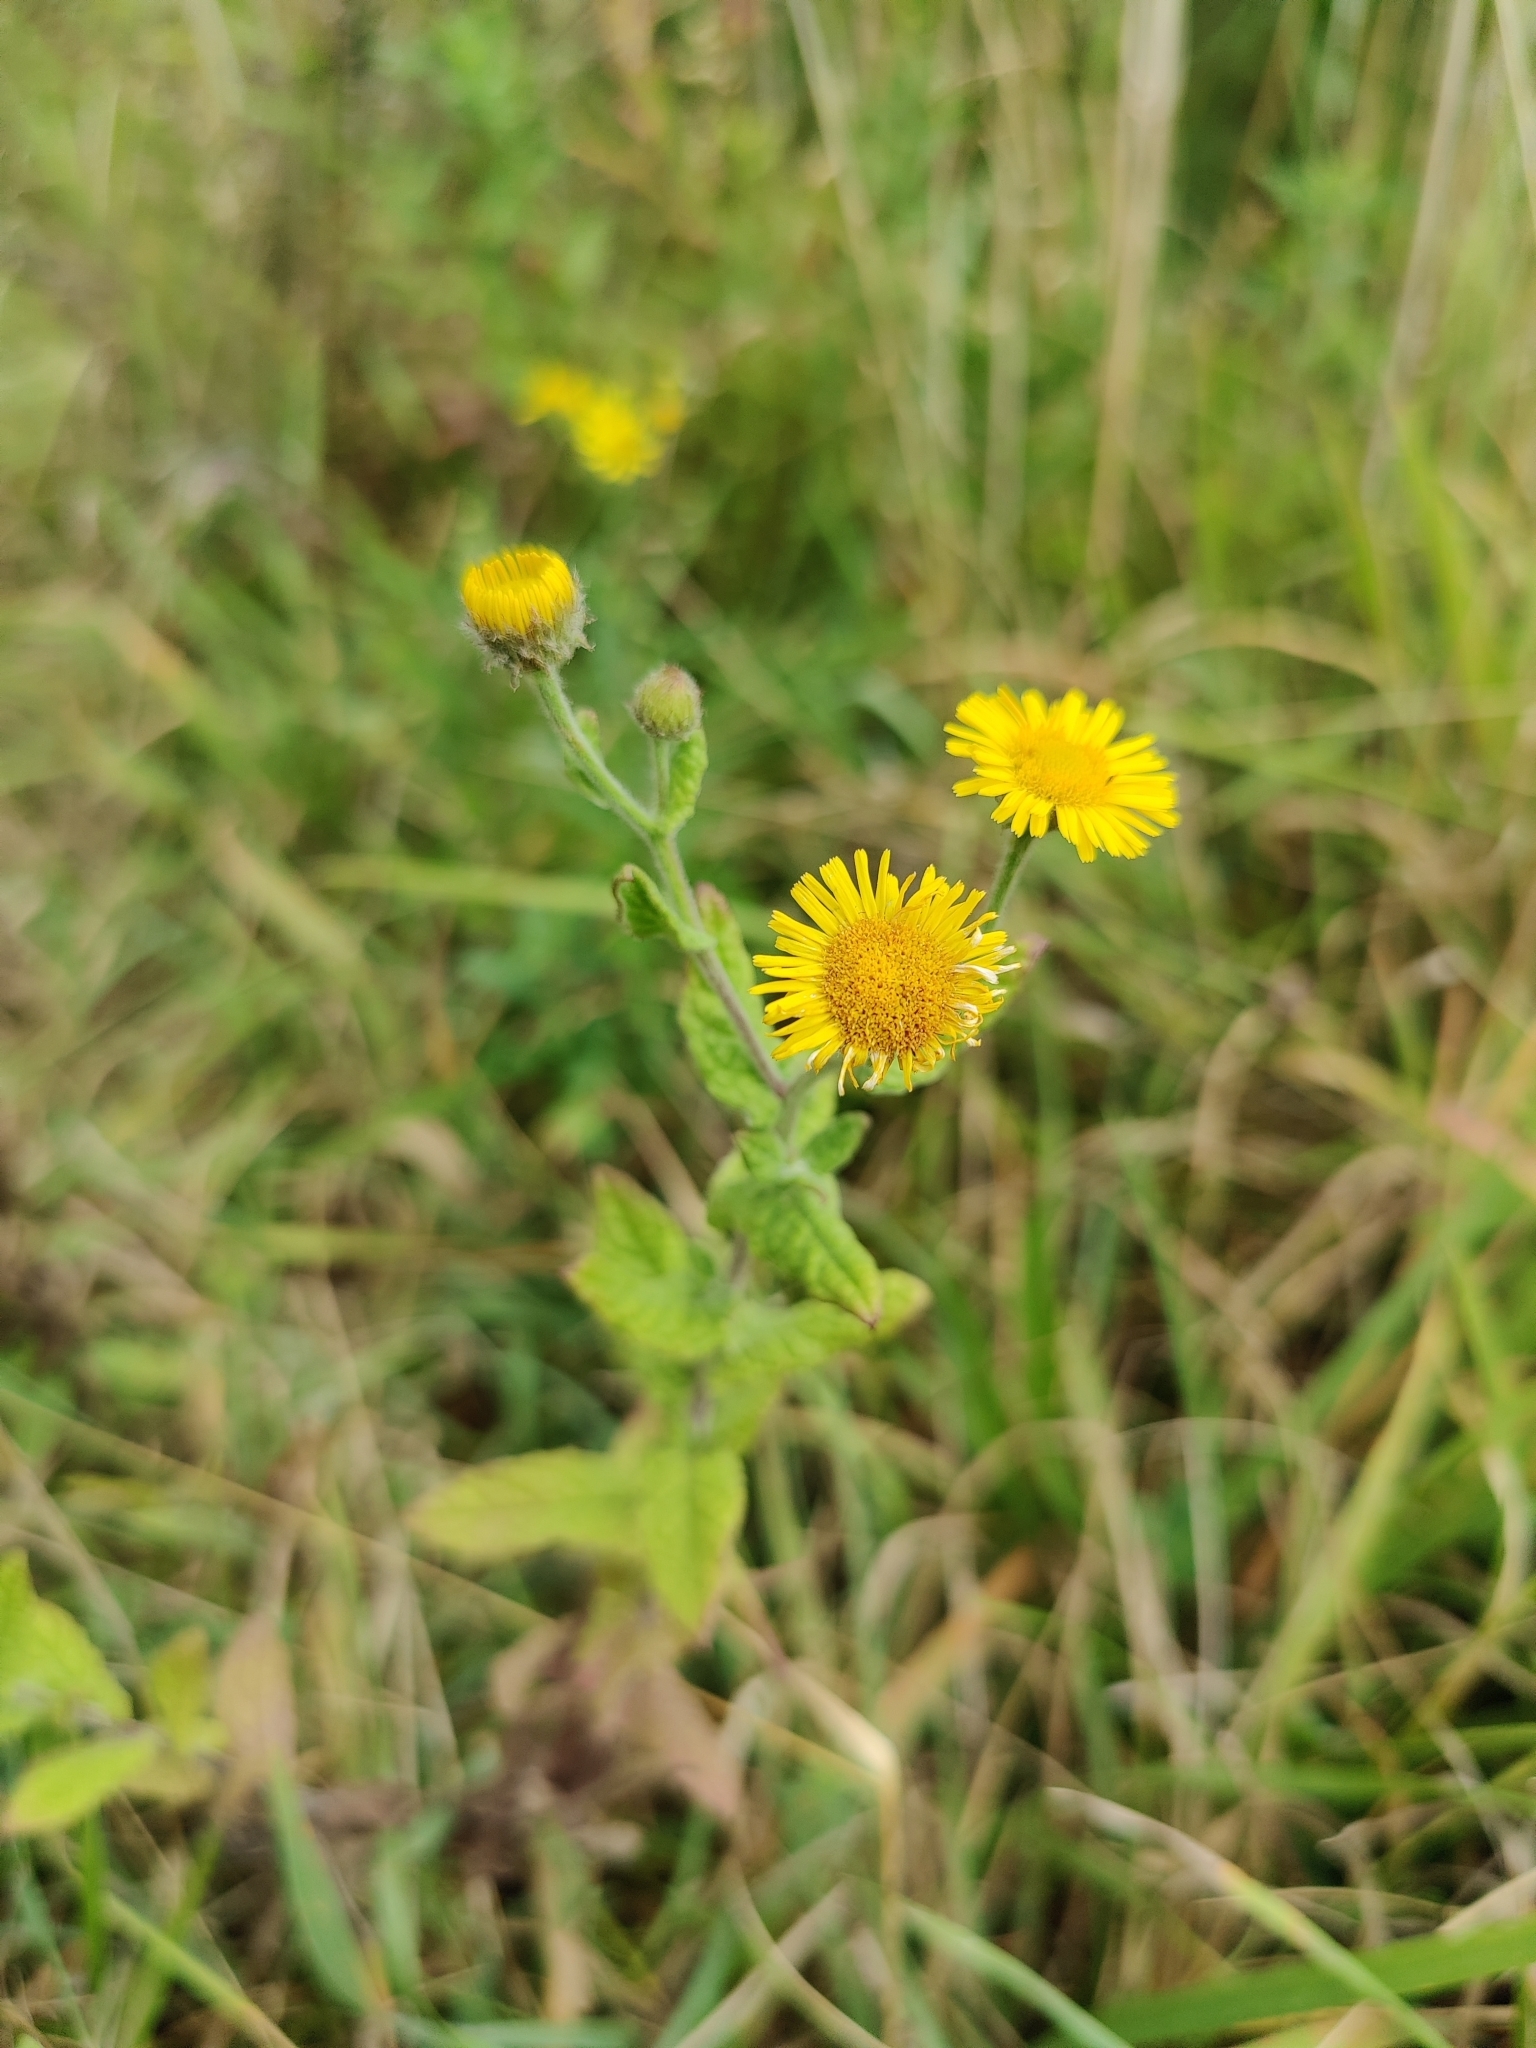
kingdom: Plantae
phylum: Tracheophyta
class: Magnoliopsida
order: Asterales
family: Asteraceae
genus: Pulicaria
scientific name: Pulicaria dysenterica
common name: Common fleabane
